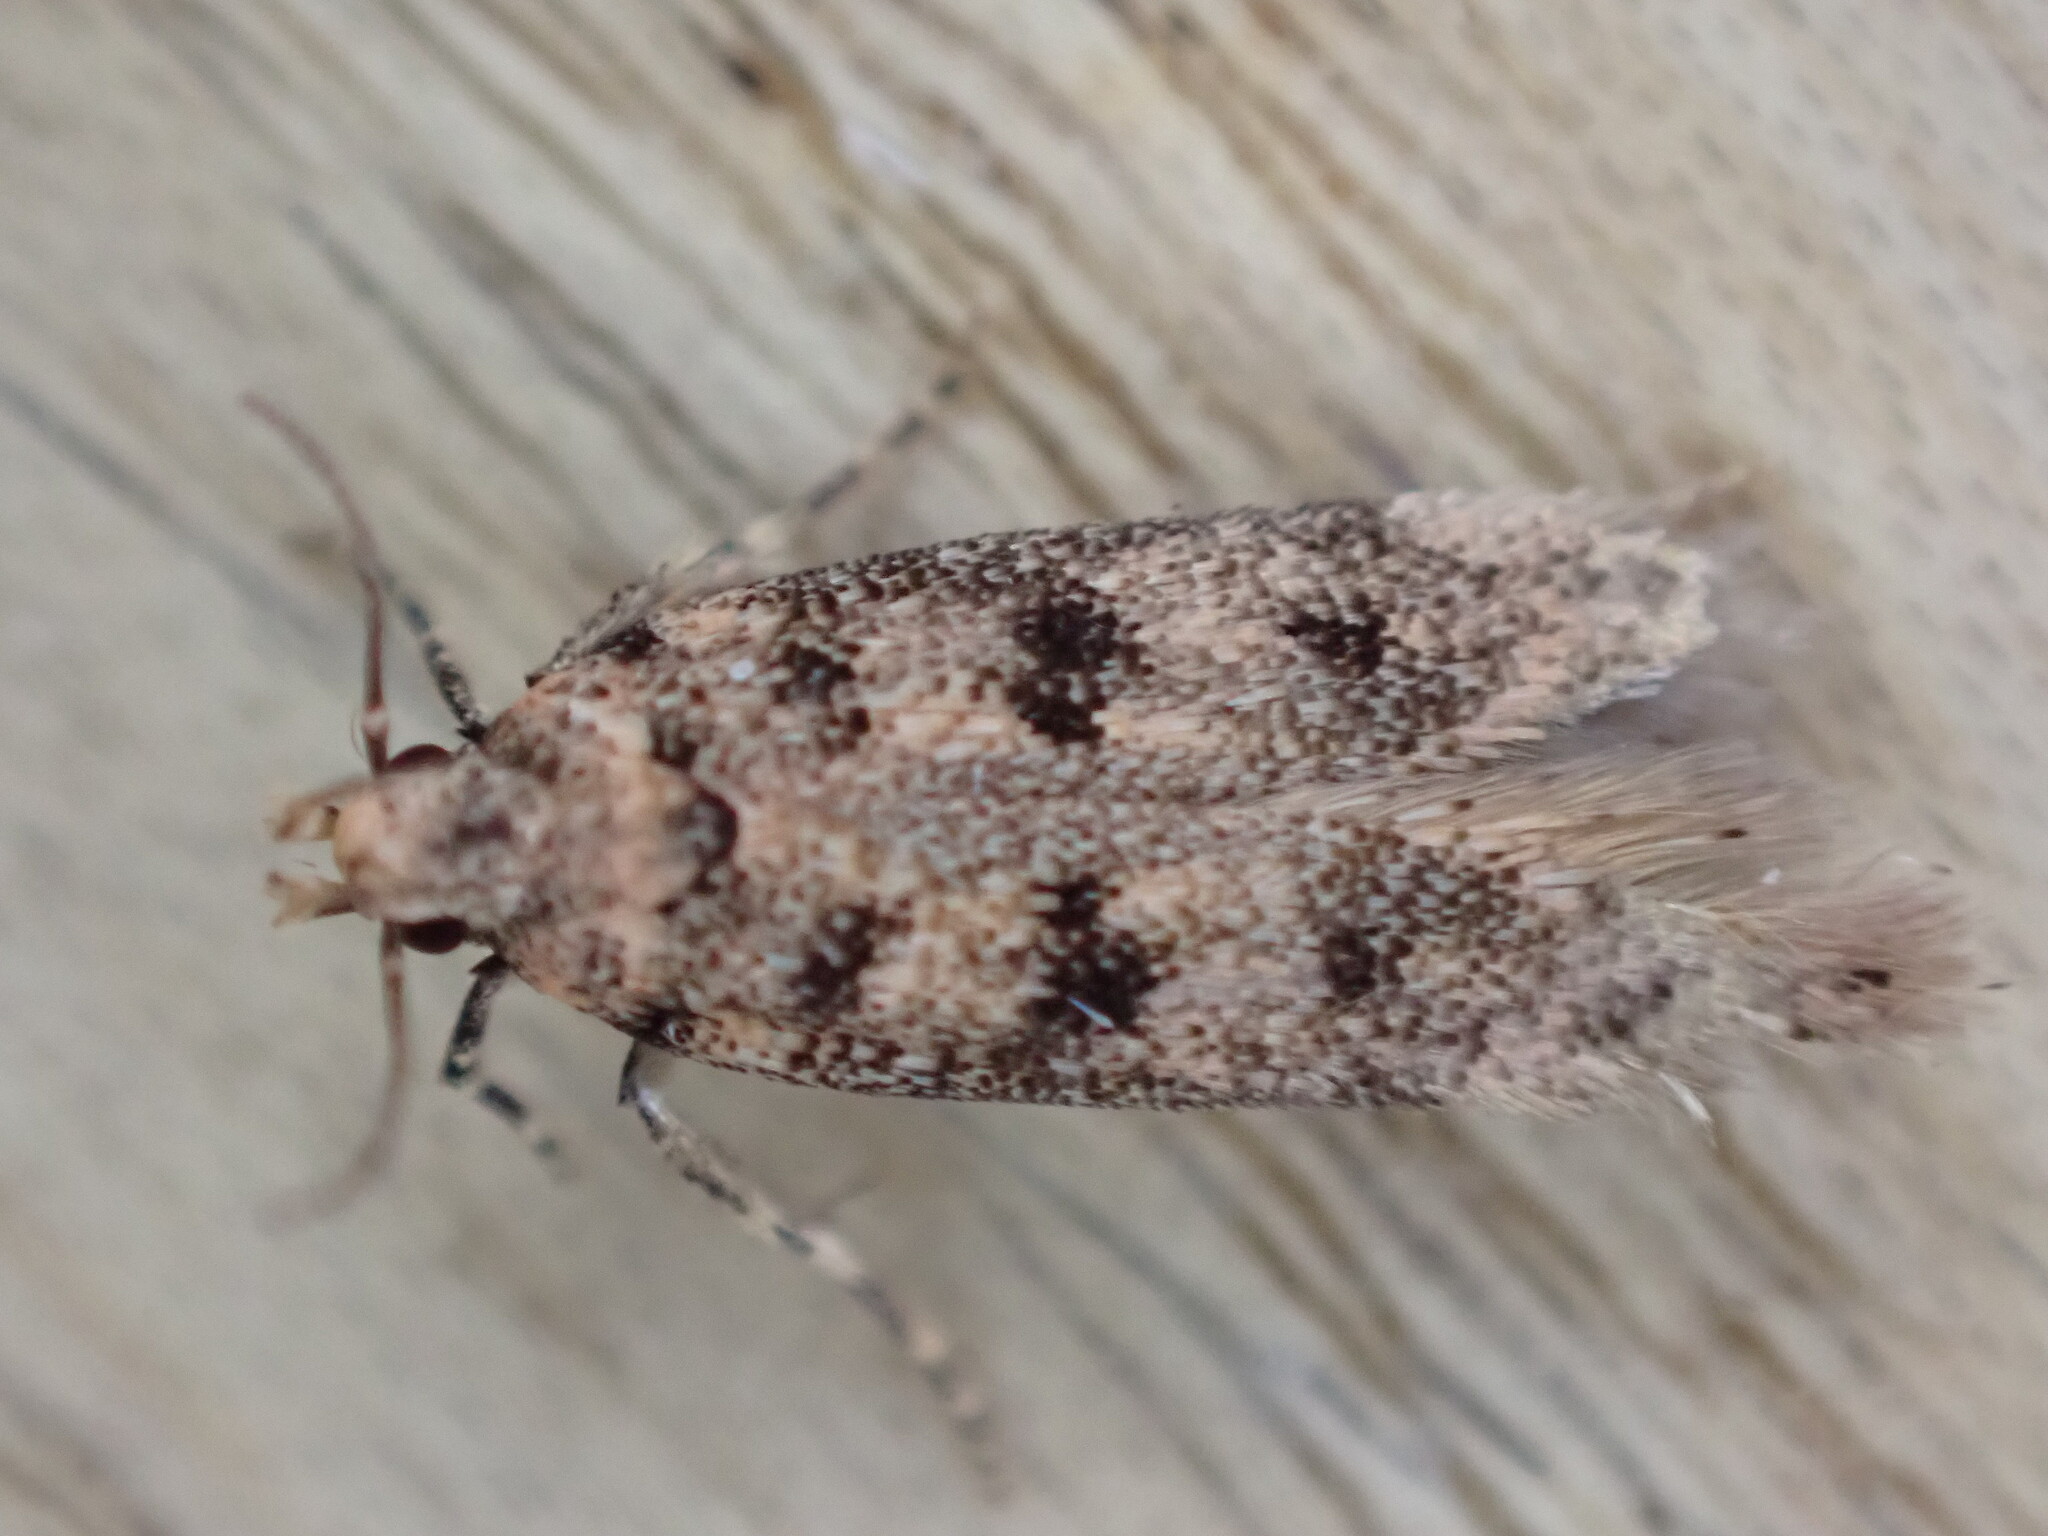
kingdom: Animalia
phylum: Arthropoda
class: Insecta
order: Lepidoptera
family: Gelechiidae
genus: Bryotropha
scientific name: Bryotropha domestica
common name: House groundling
